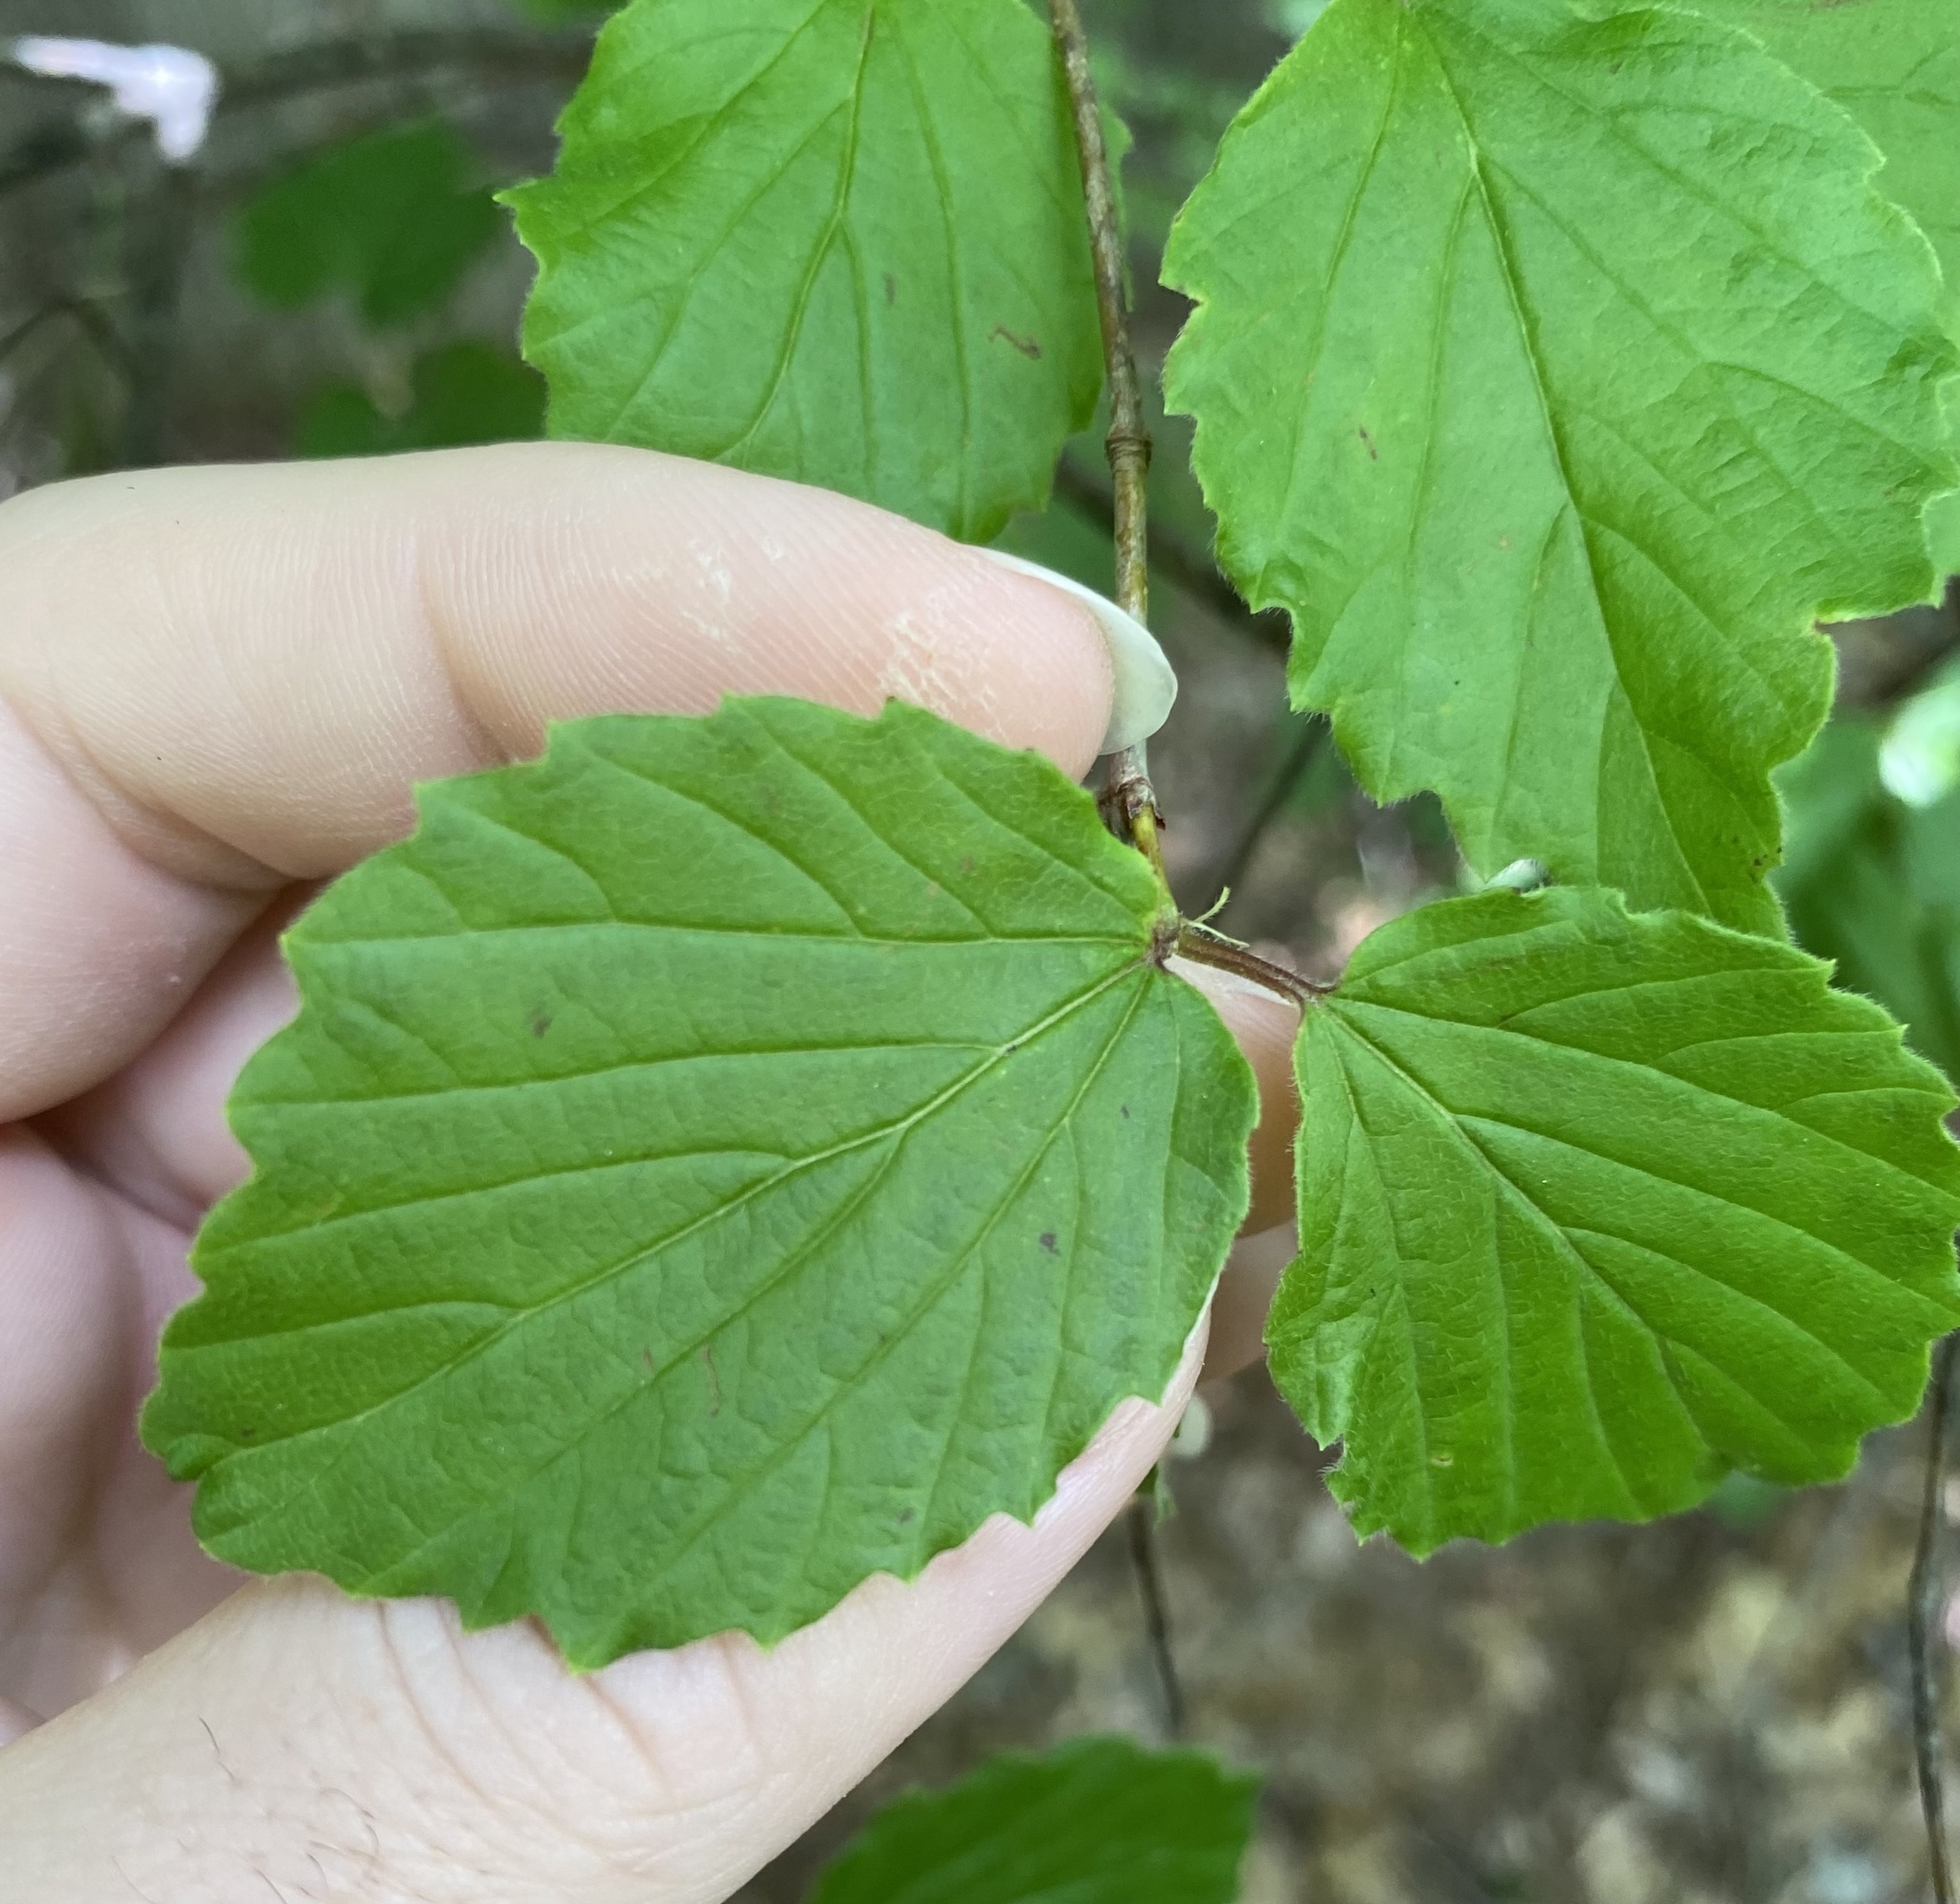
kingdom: Plantae
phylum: Tracheophyta
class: Magnoliopsida
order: Dipsacales
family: Viburnaceae
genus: Viburnum
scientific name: Viburnum rafinesqueanum
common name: Downy arrow-wood
